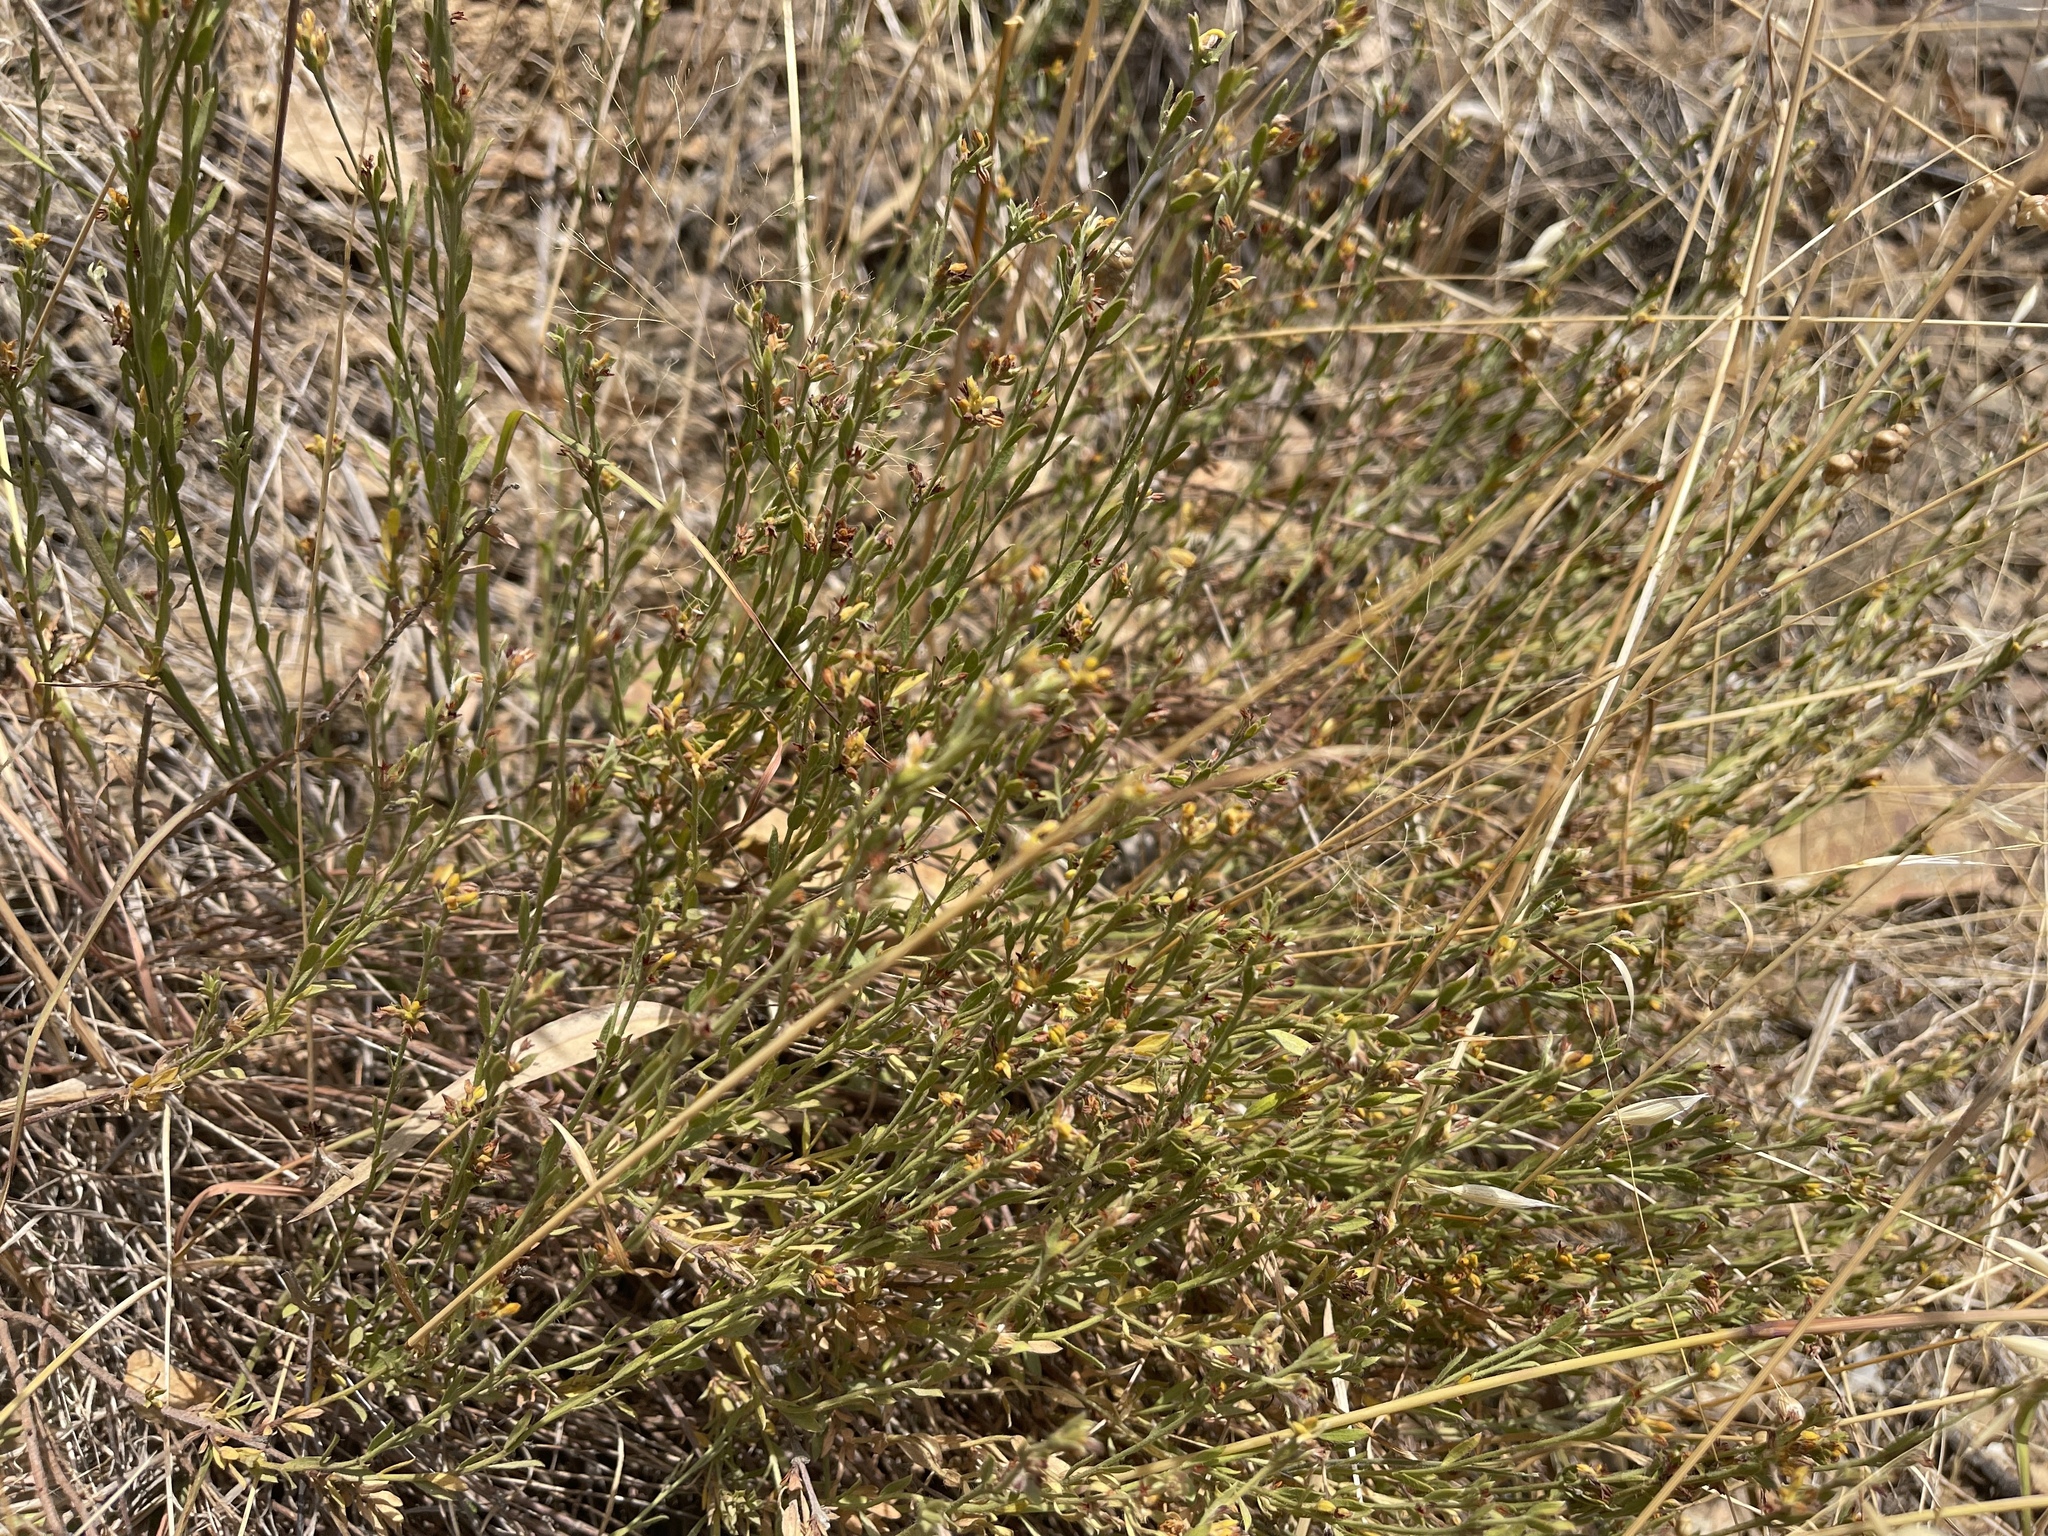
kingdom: Plantae
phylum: Tracheophyta
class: Magnoliopsida
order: Malvales
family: Thymelaeaceae
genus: Pimelea
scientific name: Pimelea curviflora
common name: Curved riceflower
